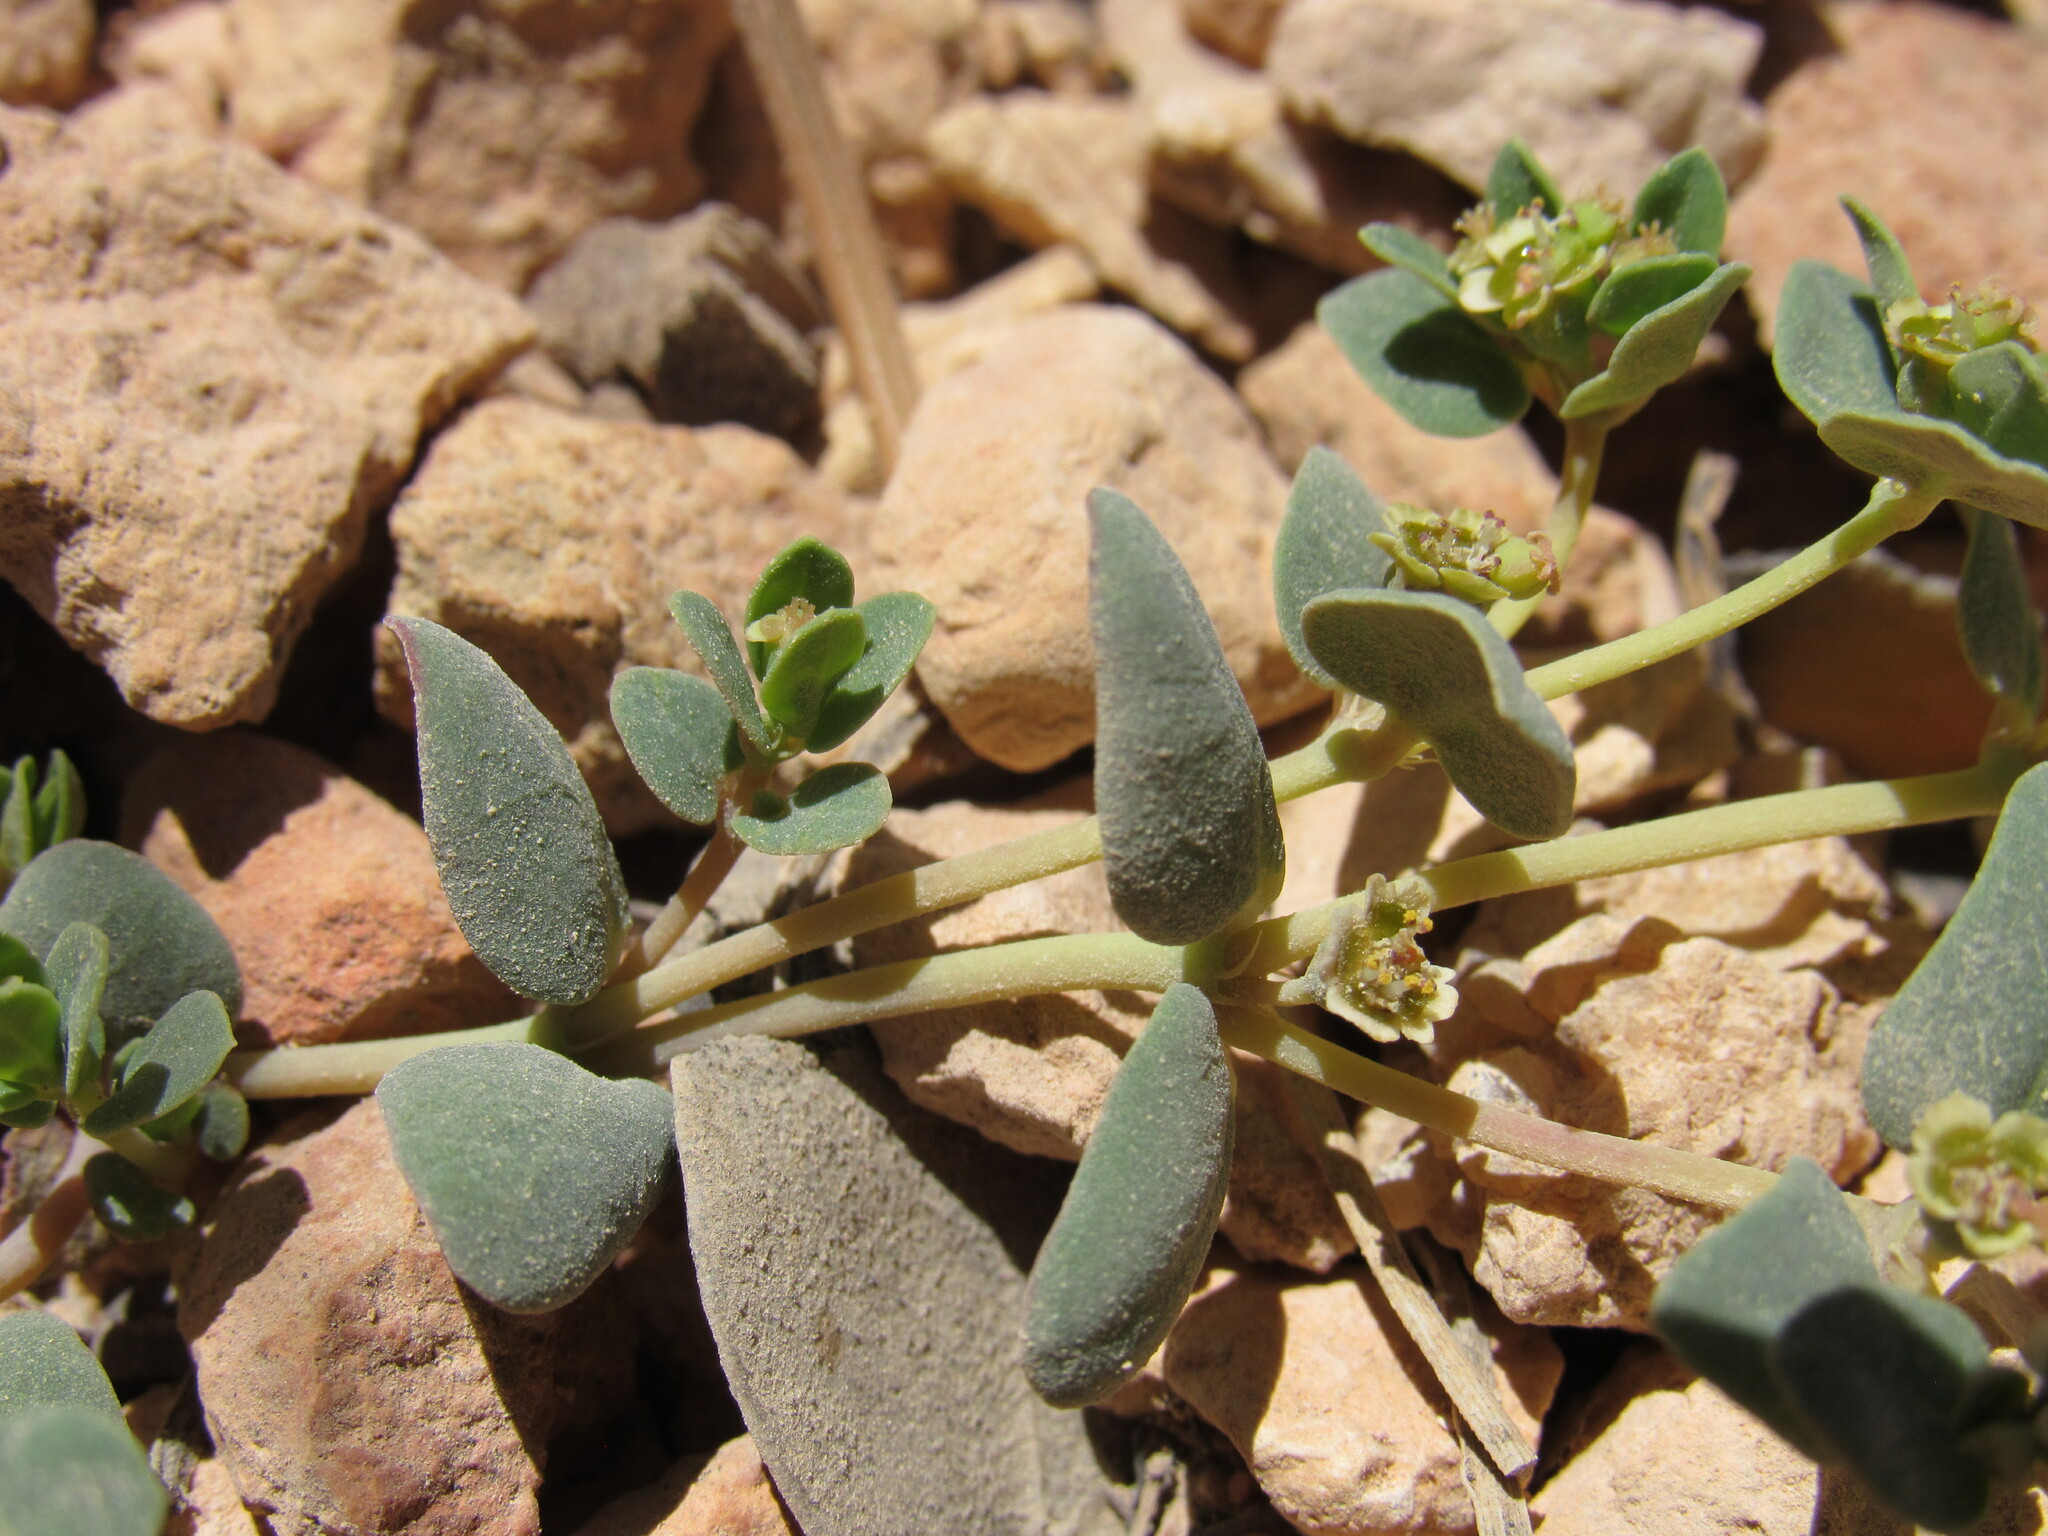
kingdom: Plantae
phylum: Tracheophyta
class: Magnoliopsida
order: Malpighiales
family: Euphorbiaceae
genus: Euphorbia
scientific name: Euphorbia fendleri
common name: Fendler's euphorbia
